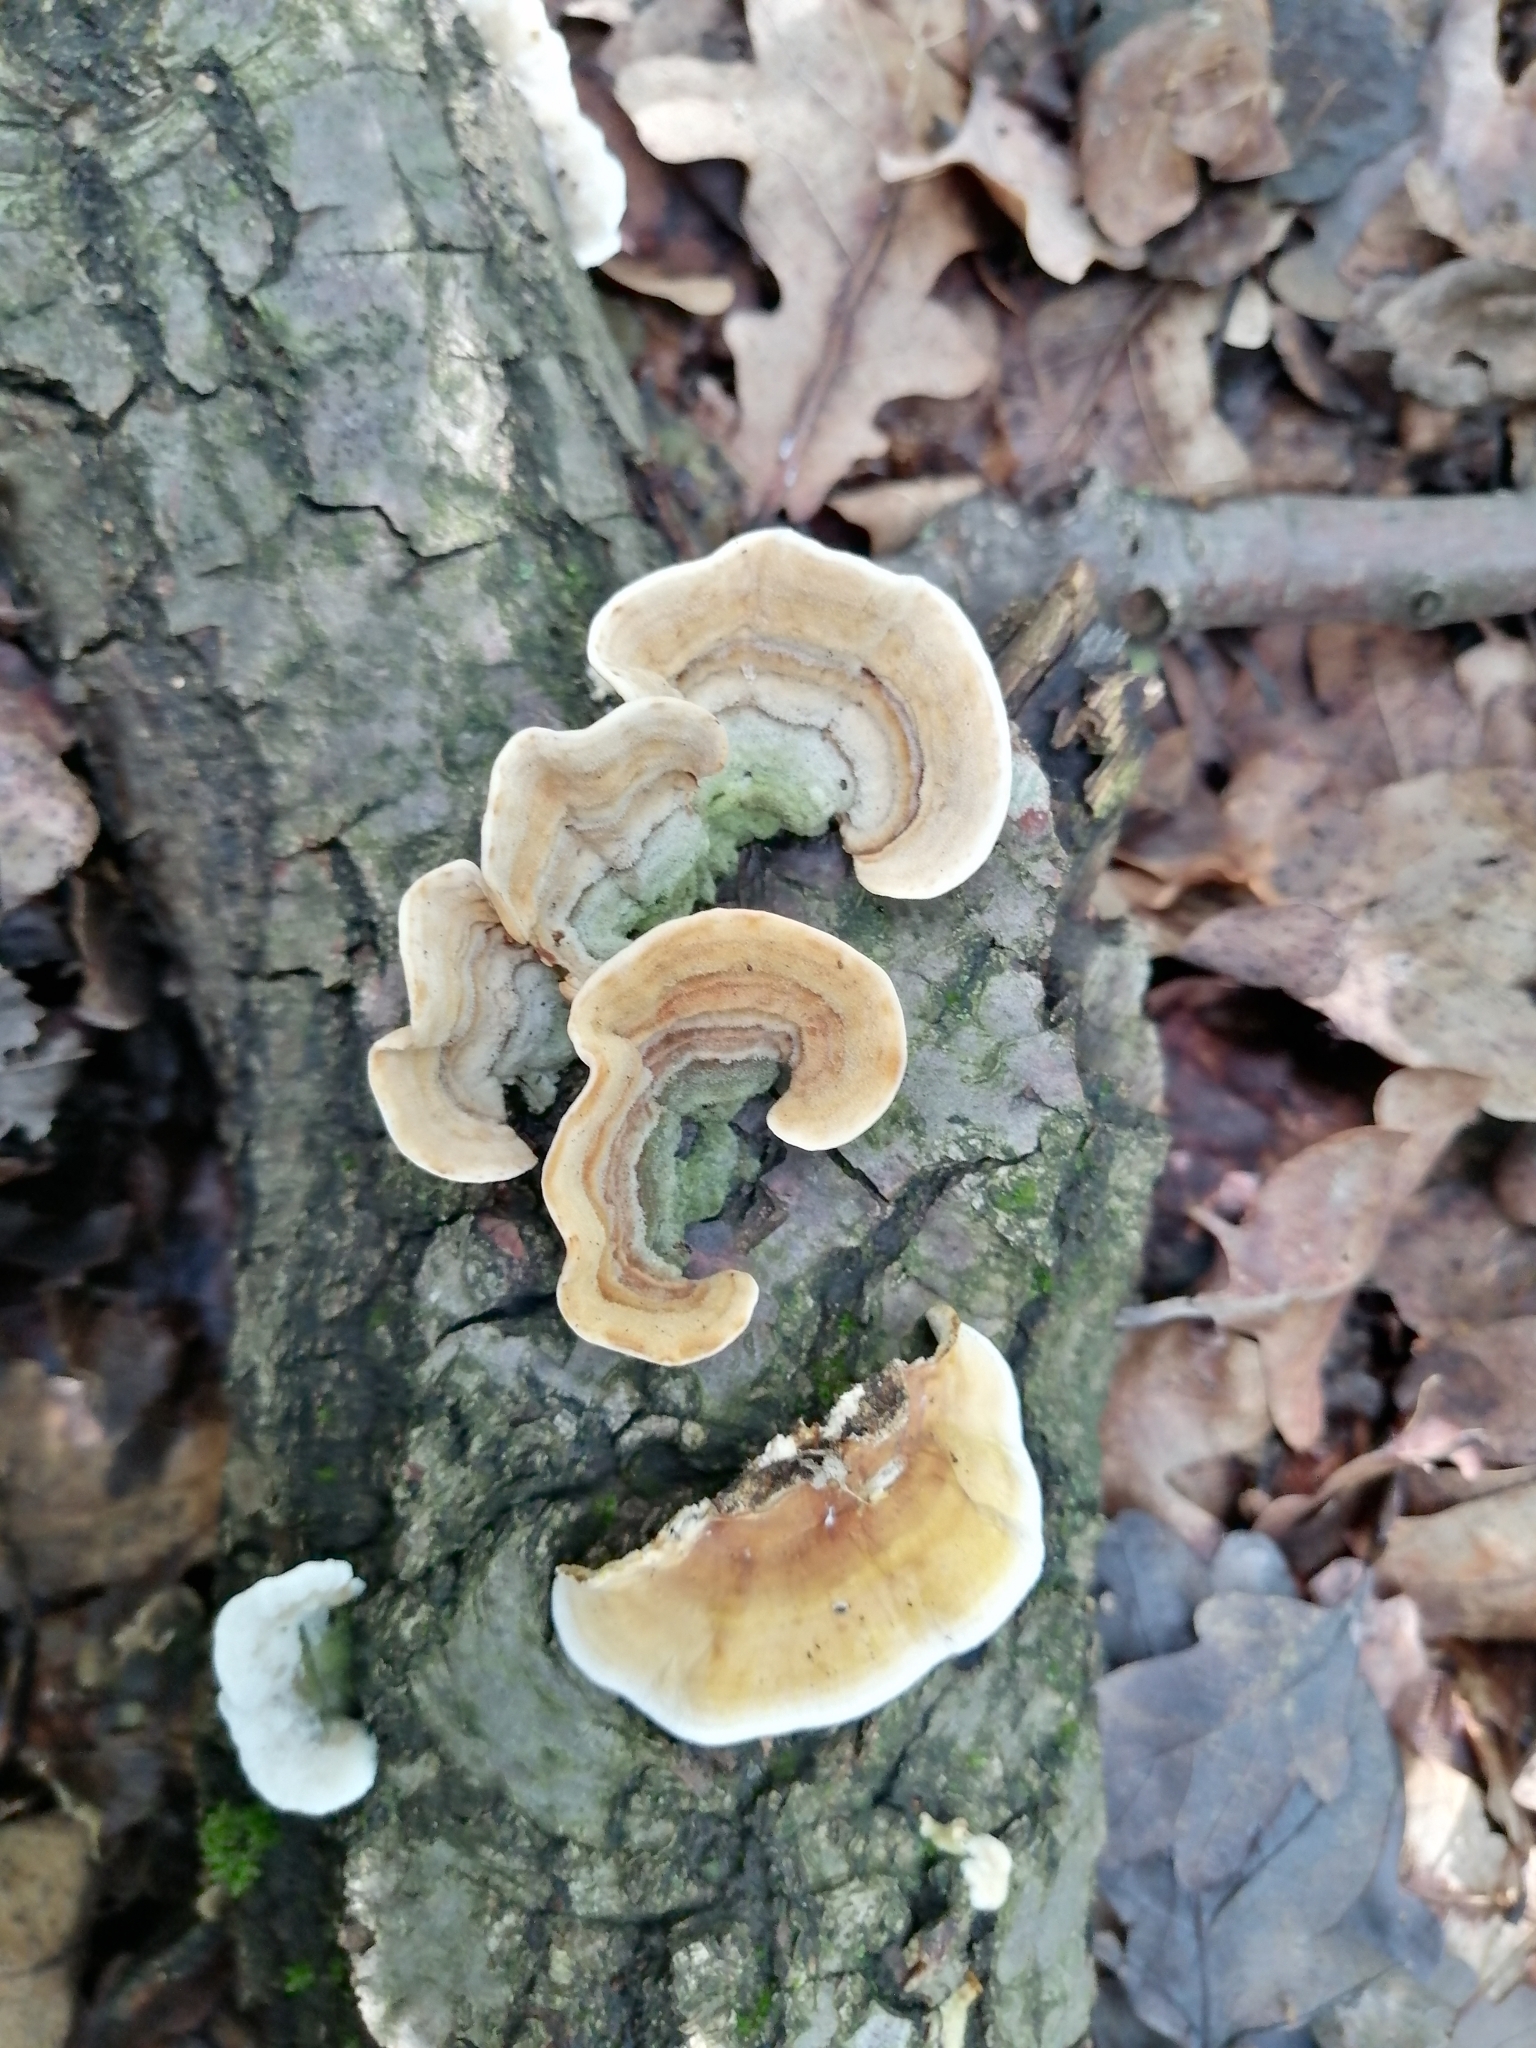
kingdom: Fungi
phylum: Basidiomycota
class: Agaricomycetes
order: Russulales
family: Stereaceae
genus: Stereum
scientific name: Stereum subtomentosum
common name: Yellowing curtain crust
